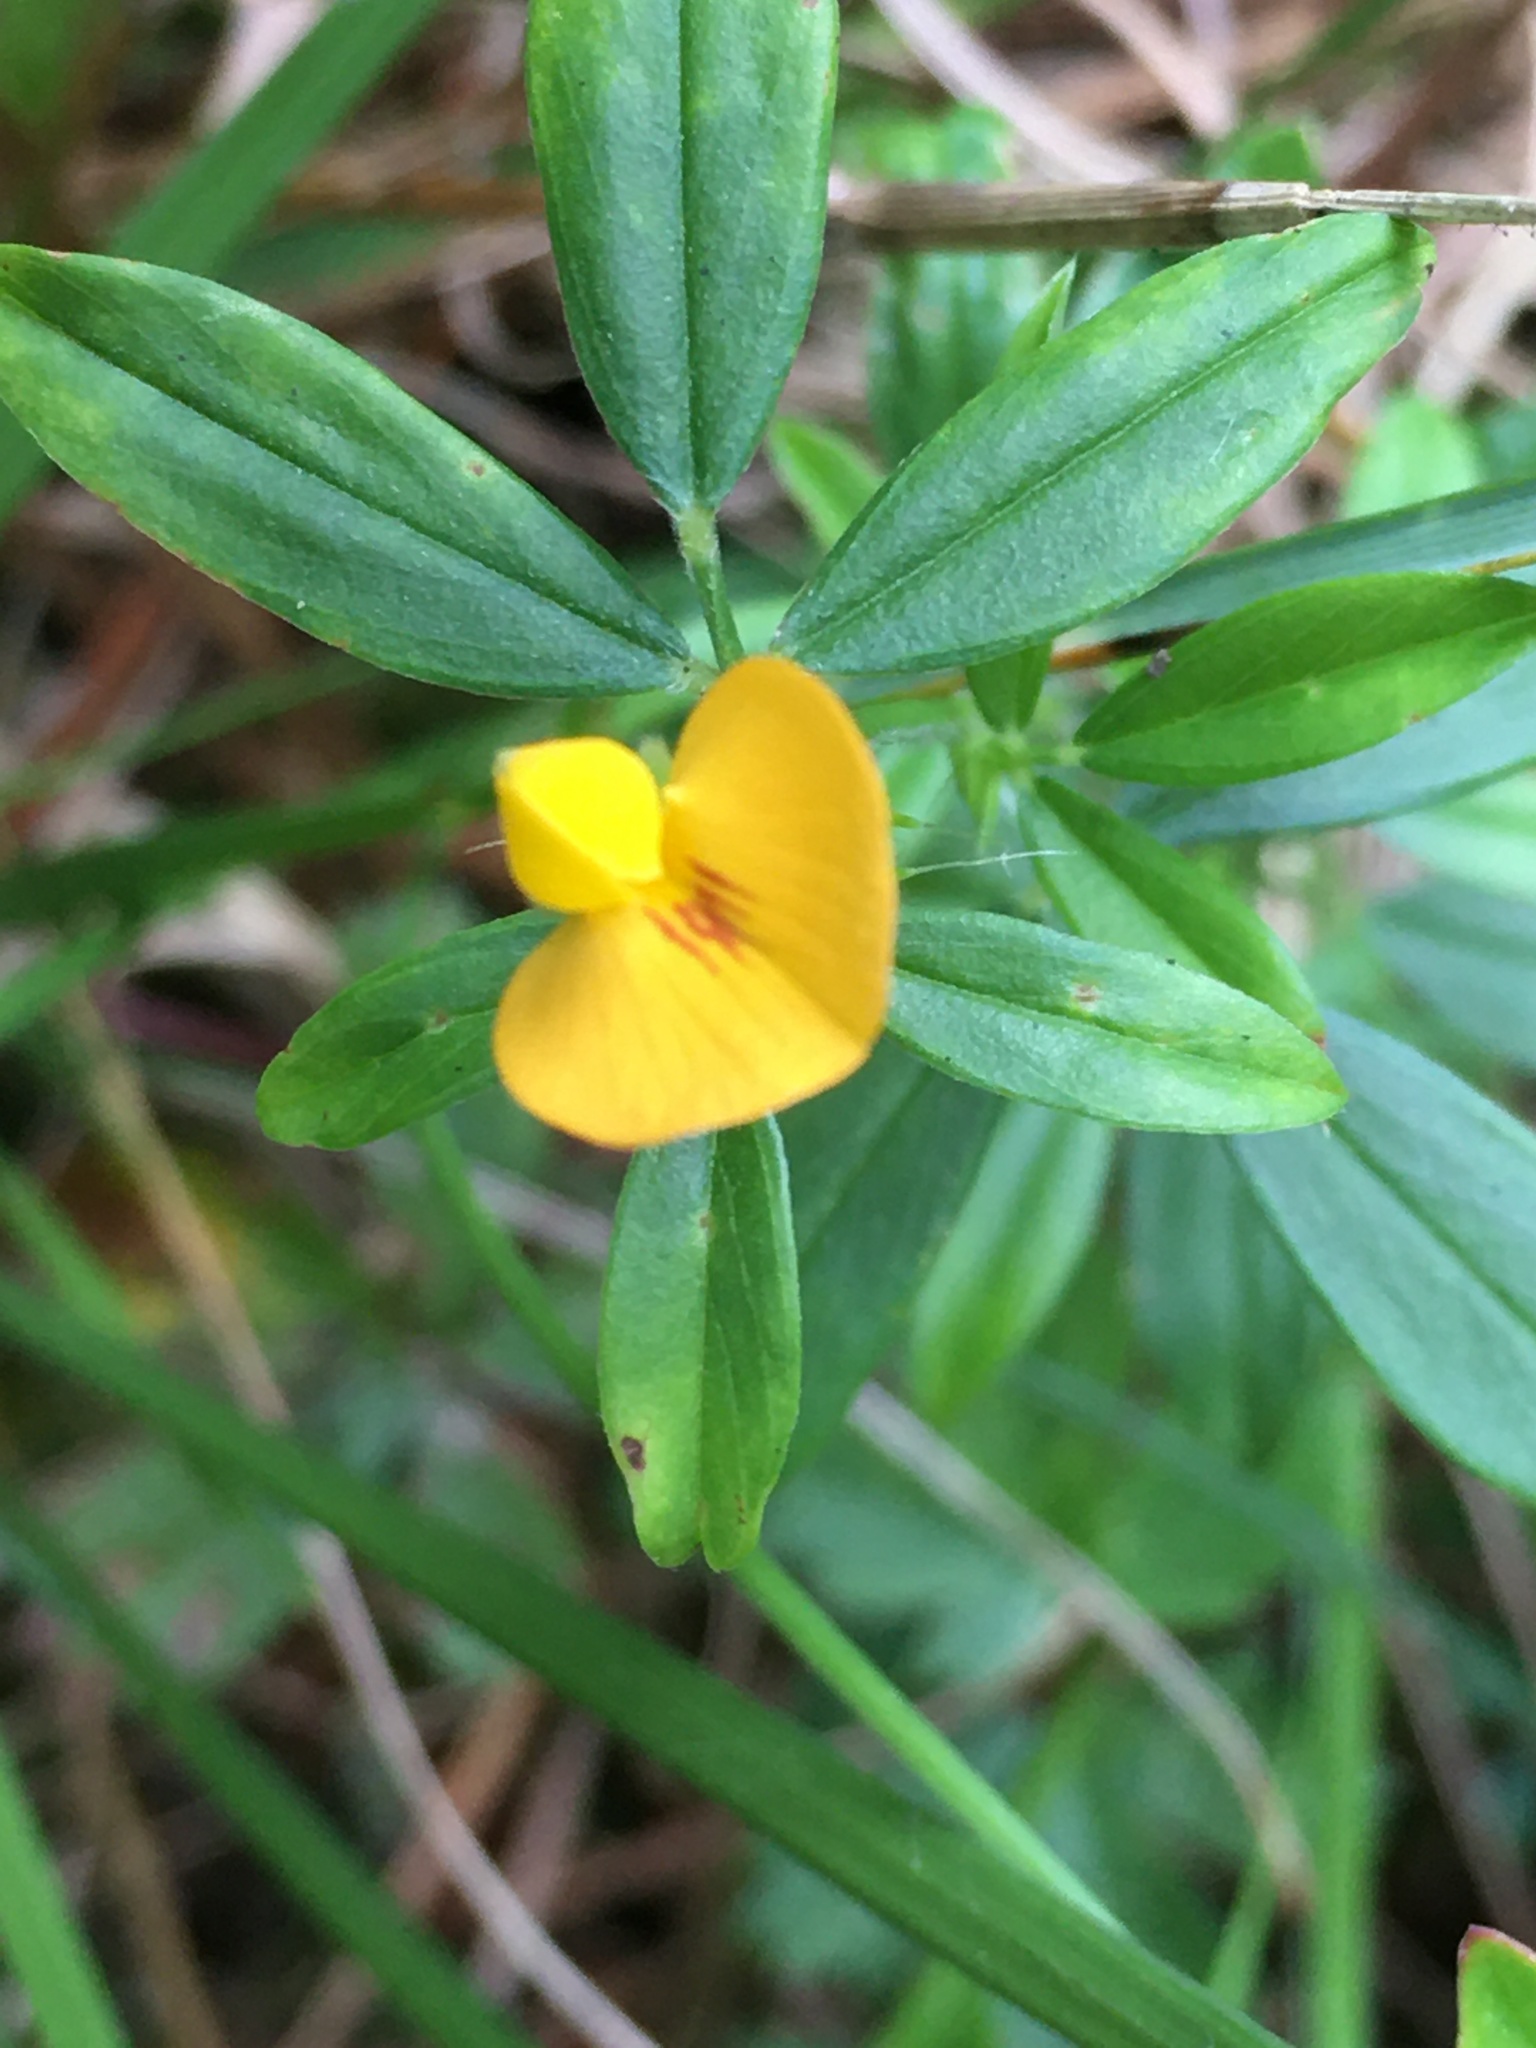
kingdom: Plantae
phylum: Tracheophyta
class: Magnoliopsida
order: Fabales
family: Fabaceae
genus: Stylosanthes
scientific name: Stylosanthes biflora
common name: Two-flower pencil-flower
